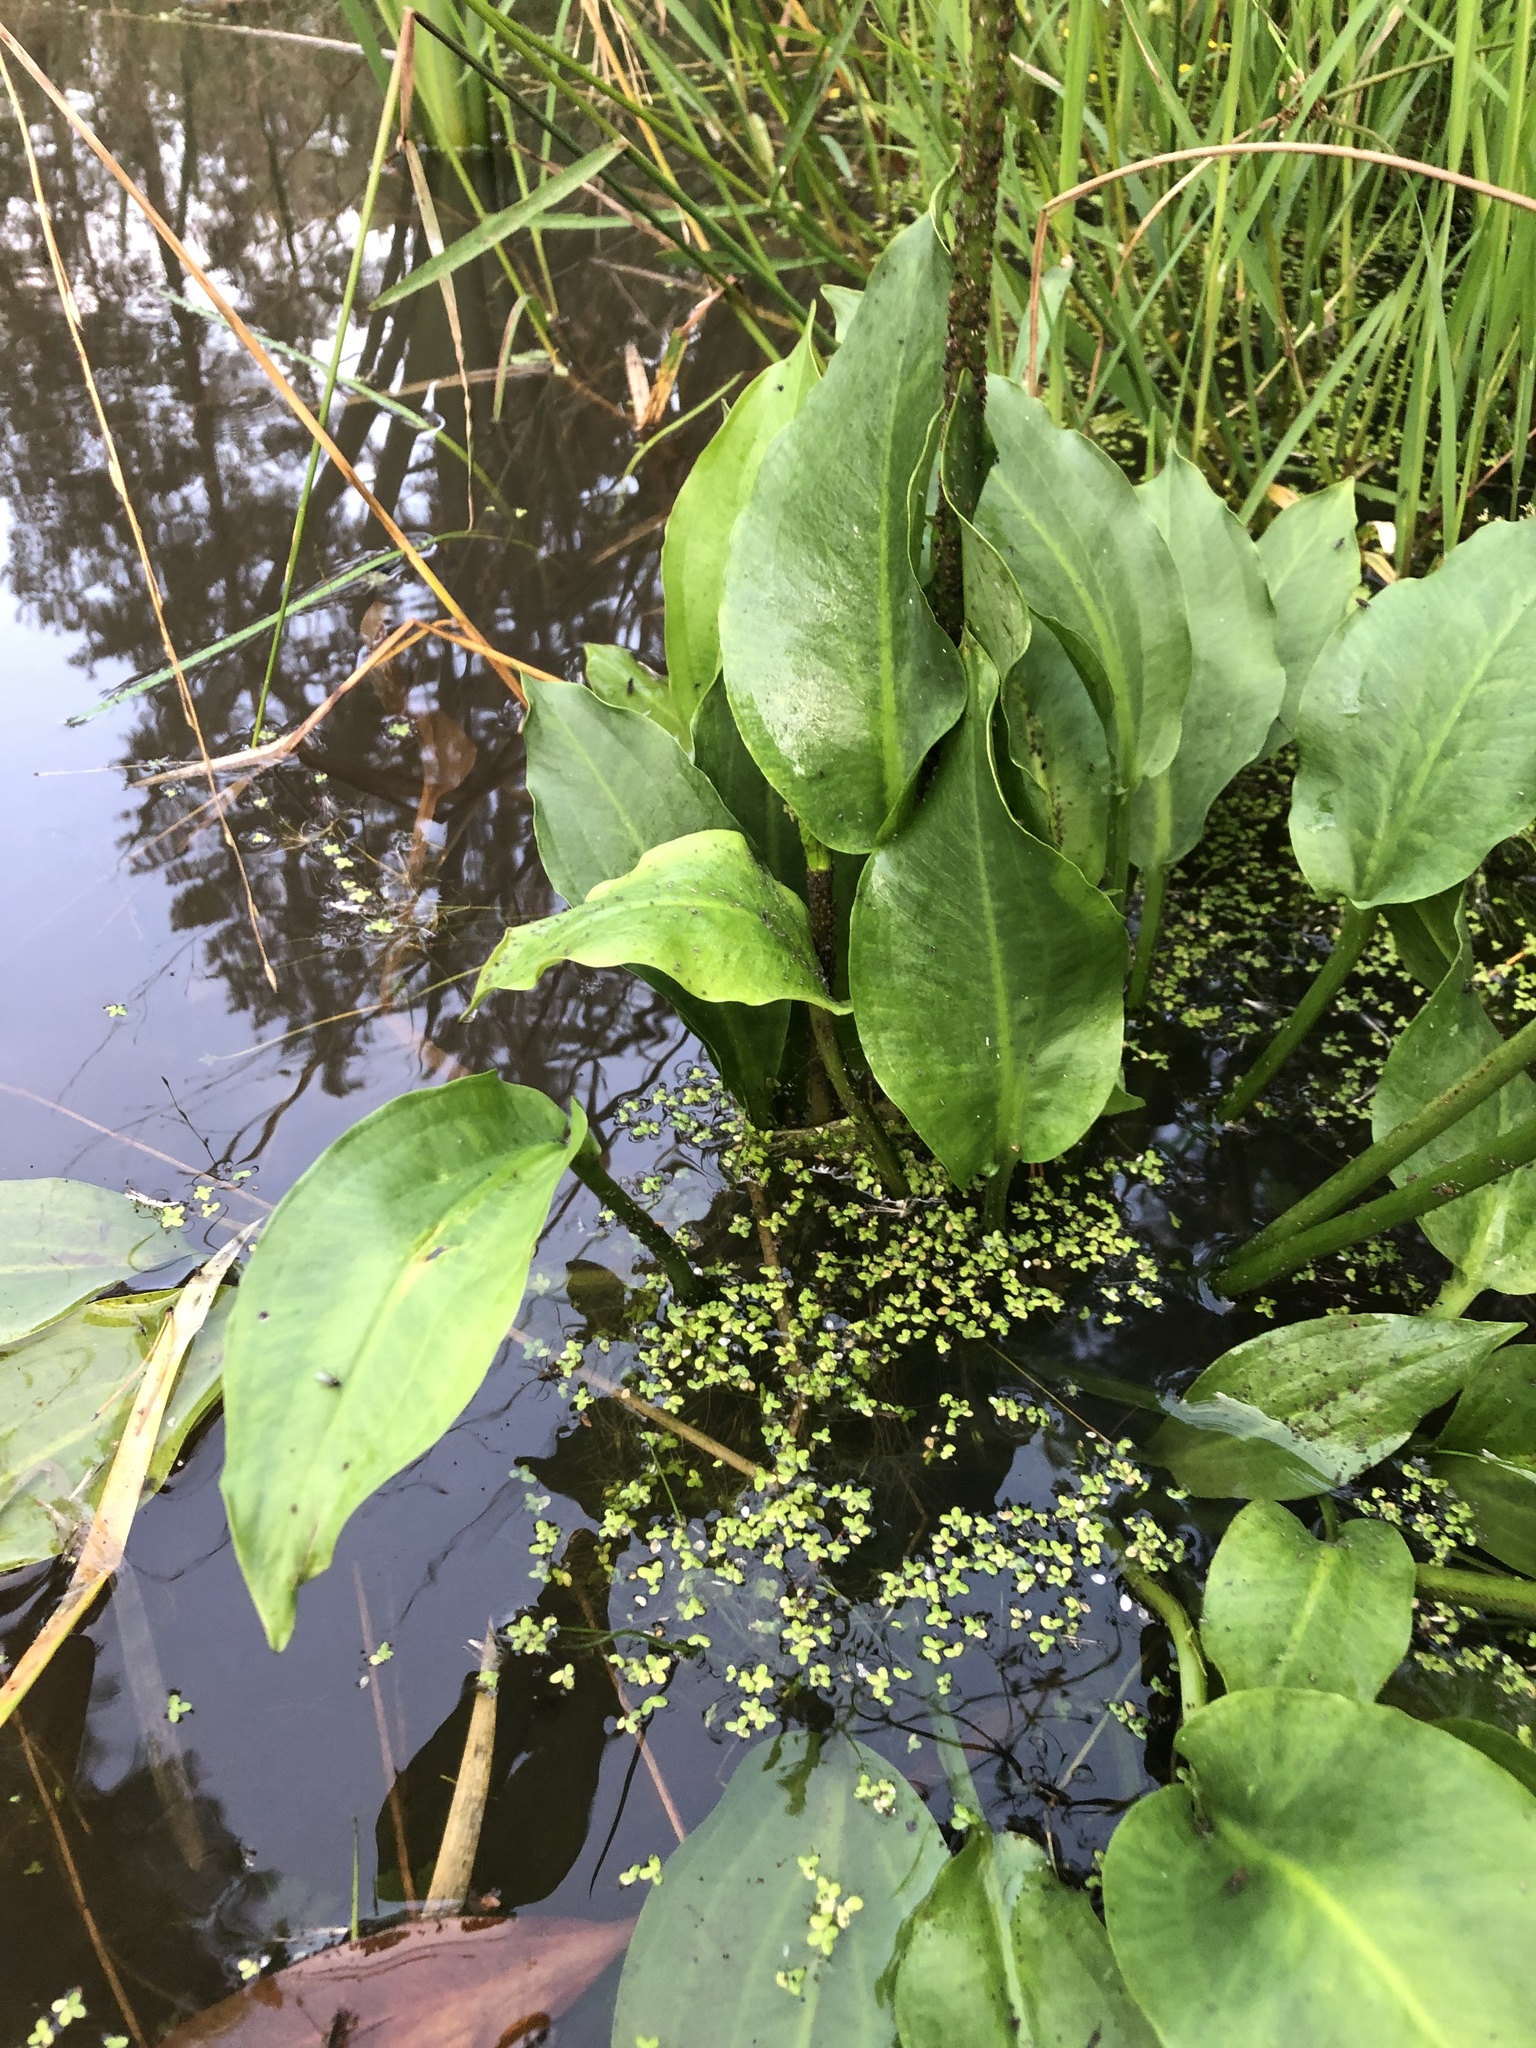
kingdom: Plantae
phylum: Tracheophyta
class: Liliopsida
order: Alismatales
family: Alismataceae
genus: Alisma
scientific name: Alisma plantago-aquatica
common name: Water-plantain
